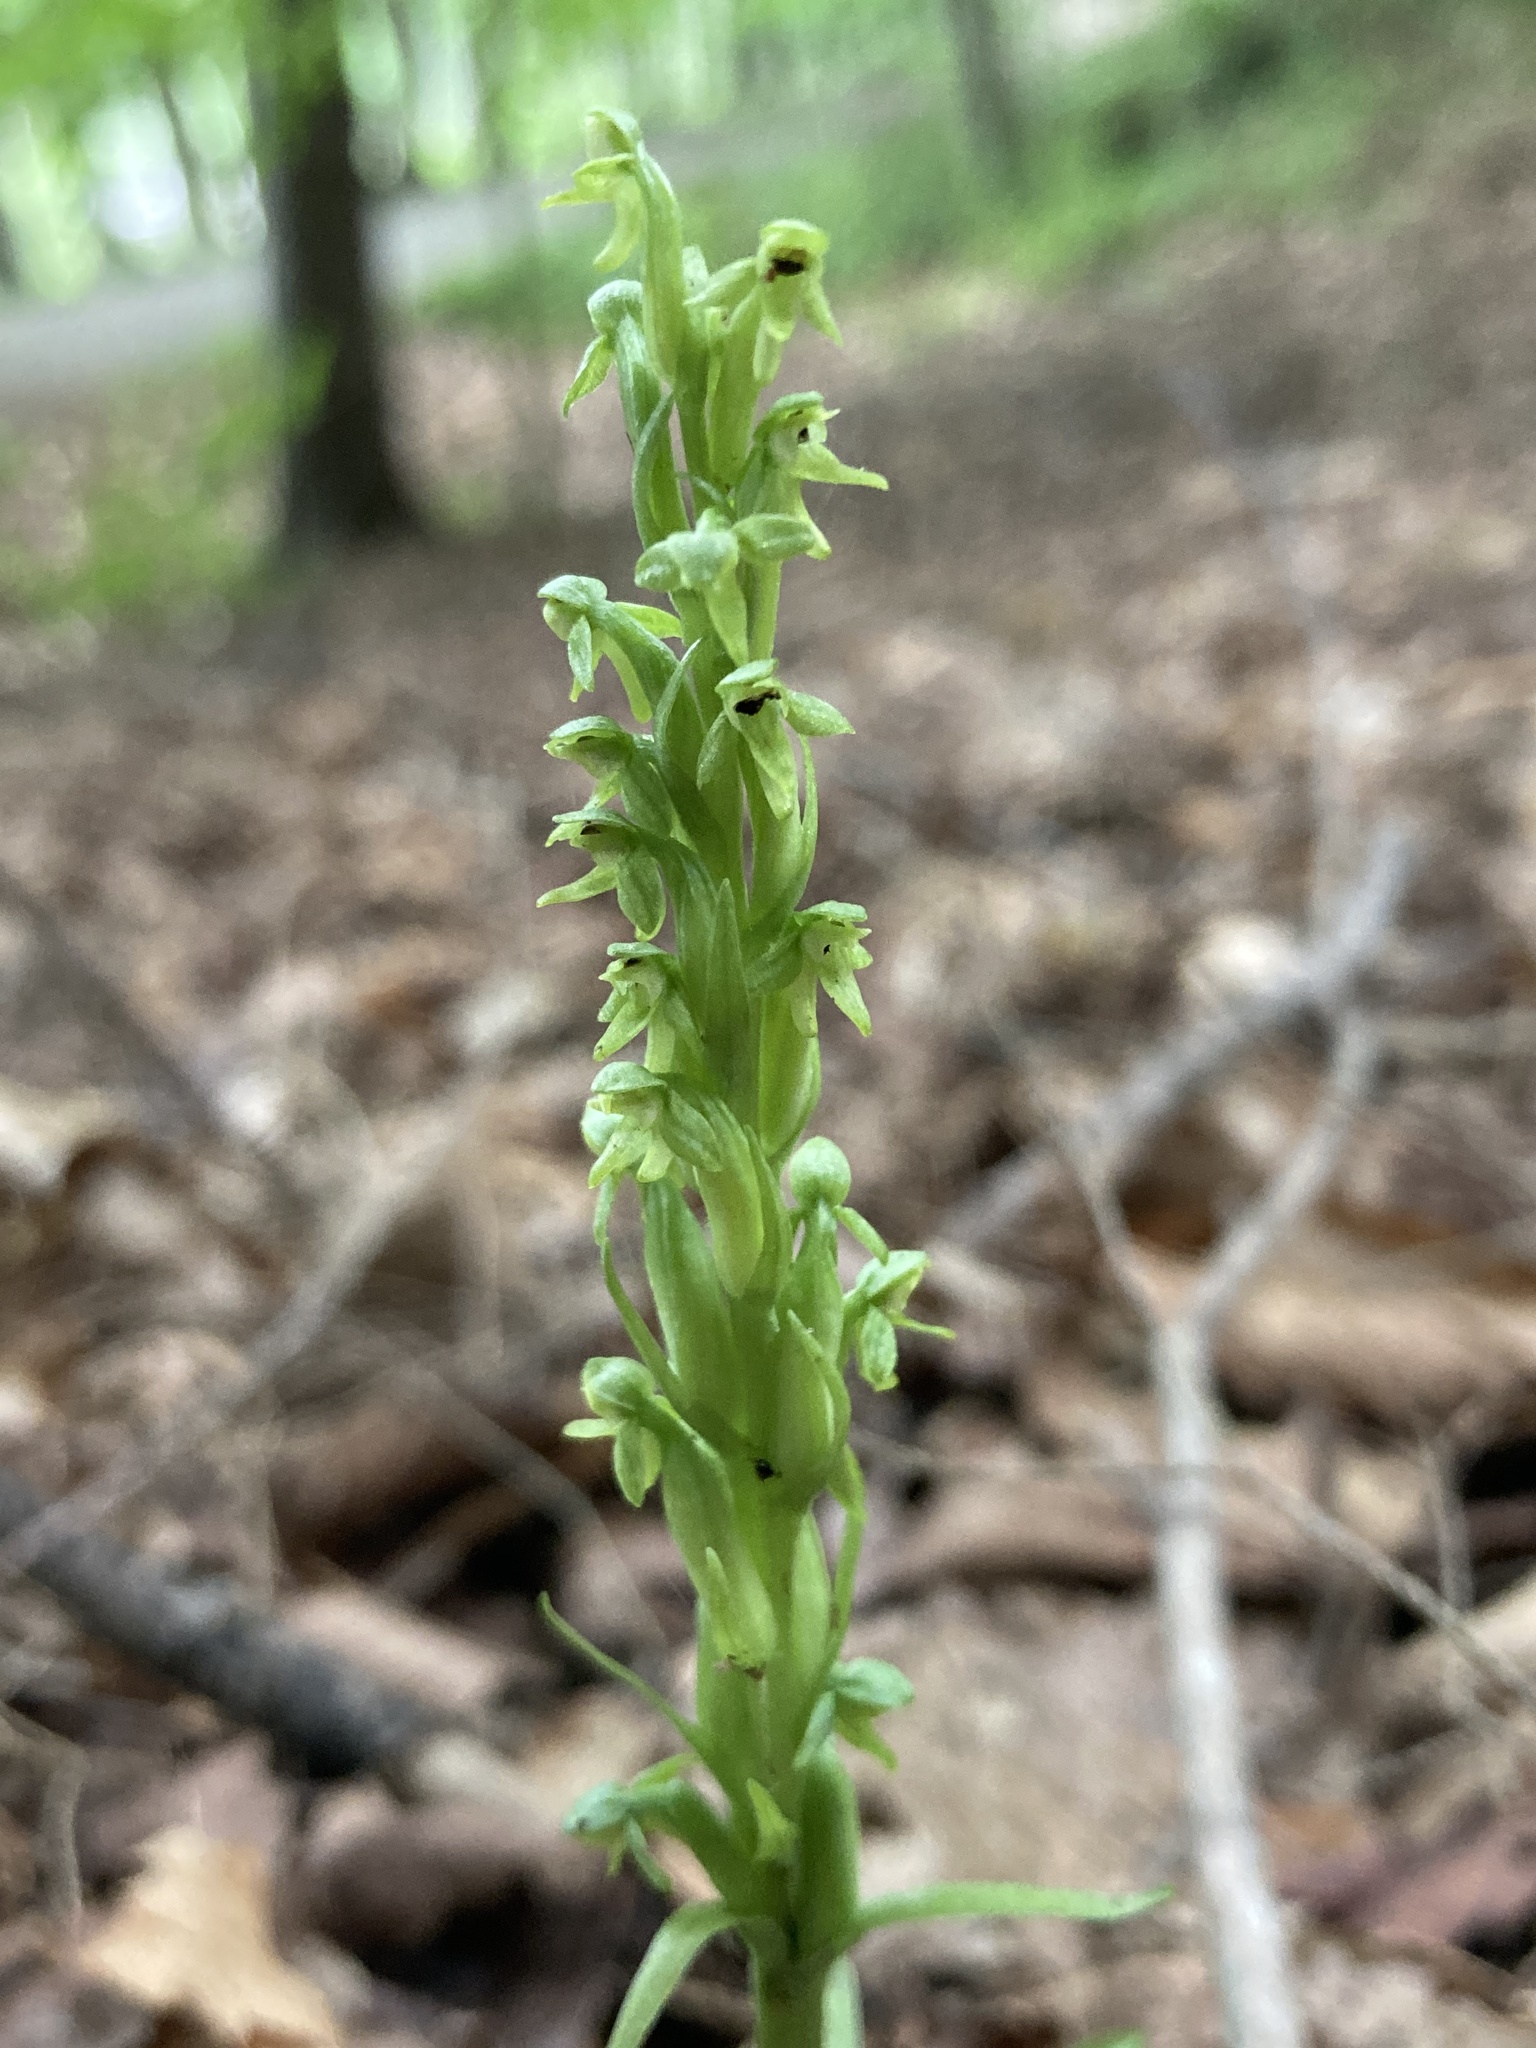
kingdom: Plantae
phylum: Tracheophyta
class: Liliopsida
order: Asparagales
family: Orchidaceae
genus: Platanthera
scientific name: Platanthera aquilonis
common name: Northern green orchid
